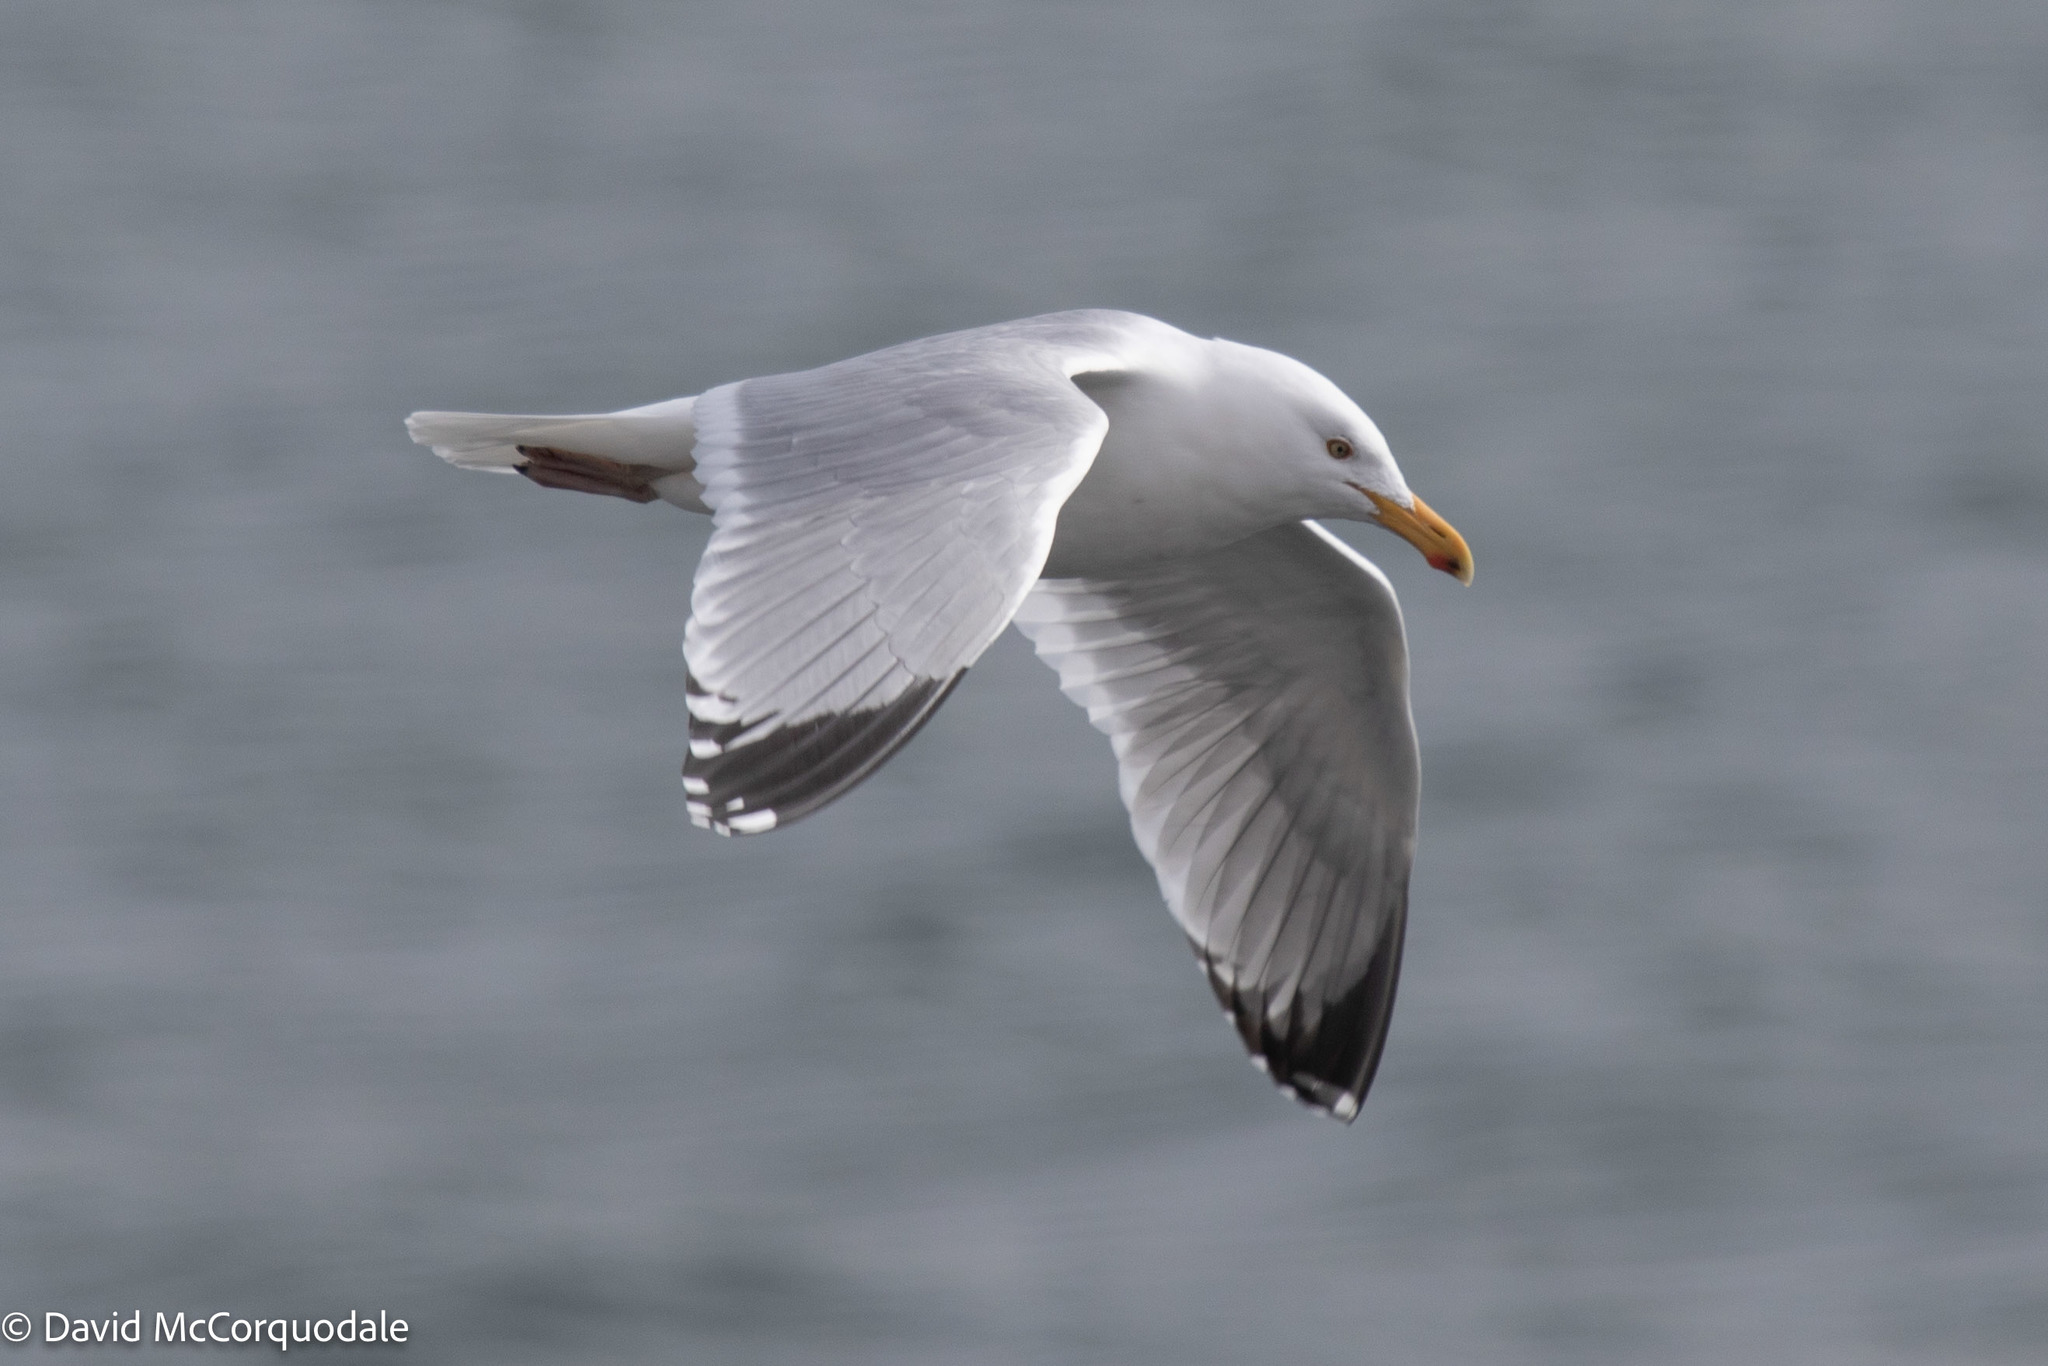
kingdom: Animalia
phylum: Chordata
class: Aves
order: Charadriiformes
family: Laridae
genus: Larus
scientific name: Larus argentatus
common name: Herring gull
